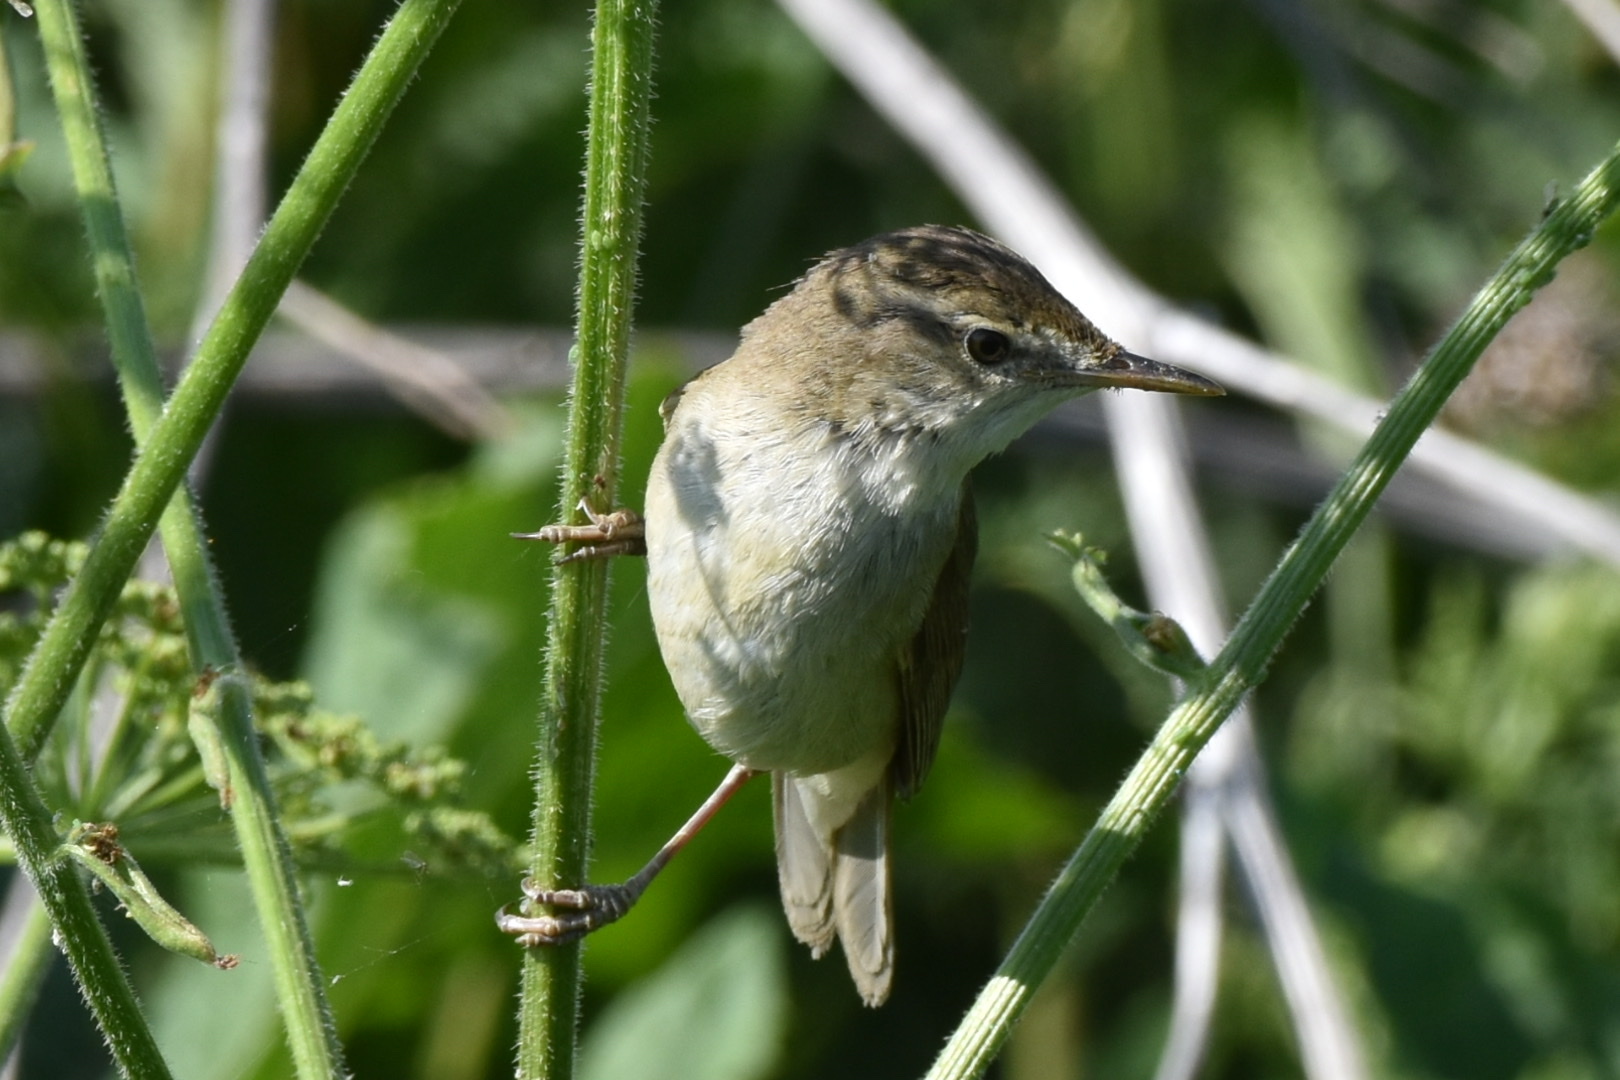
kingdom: Animalia
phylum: Chordata
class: Aves
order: Passeriformes
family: Acrocephalidae
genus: Acrocephalus
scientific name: Acrocephalus dumetorum
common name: Blyth's reed warbler
